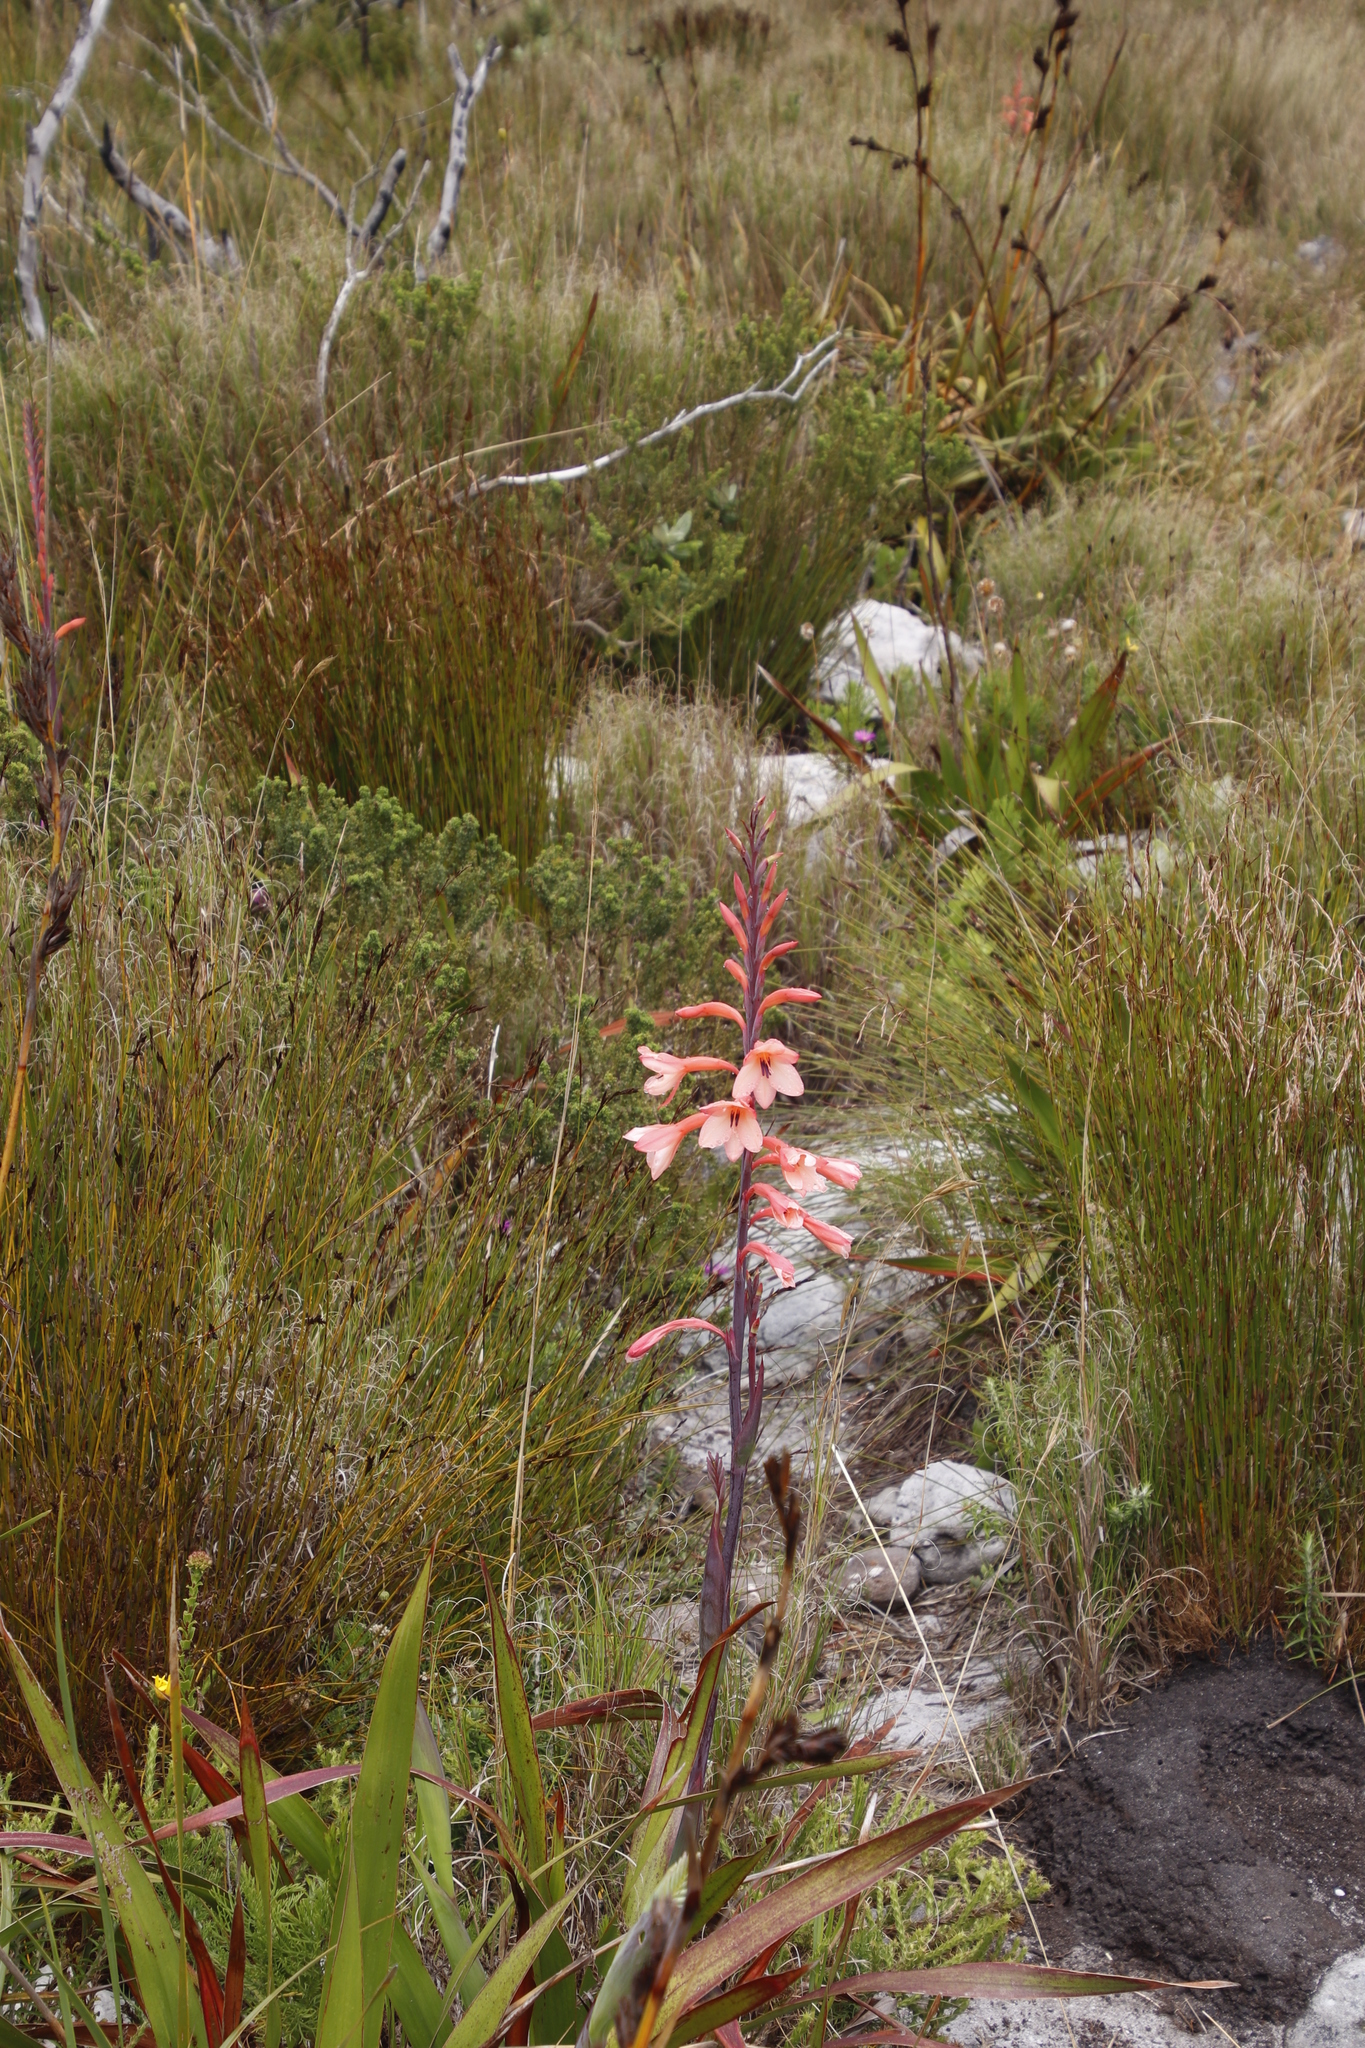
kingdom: Plantae
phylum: Tracheophyta
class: Liliopsida
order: Asparagales
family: Iridaceae
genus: Watsonia
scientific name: Watsonia tabularis
